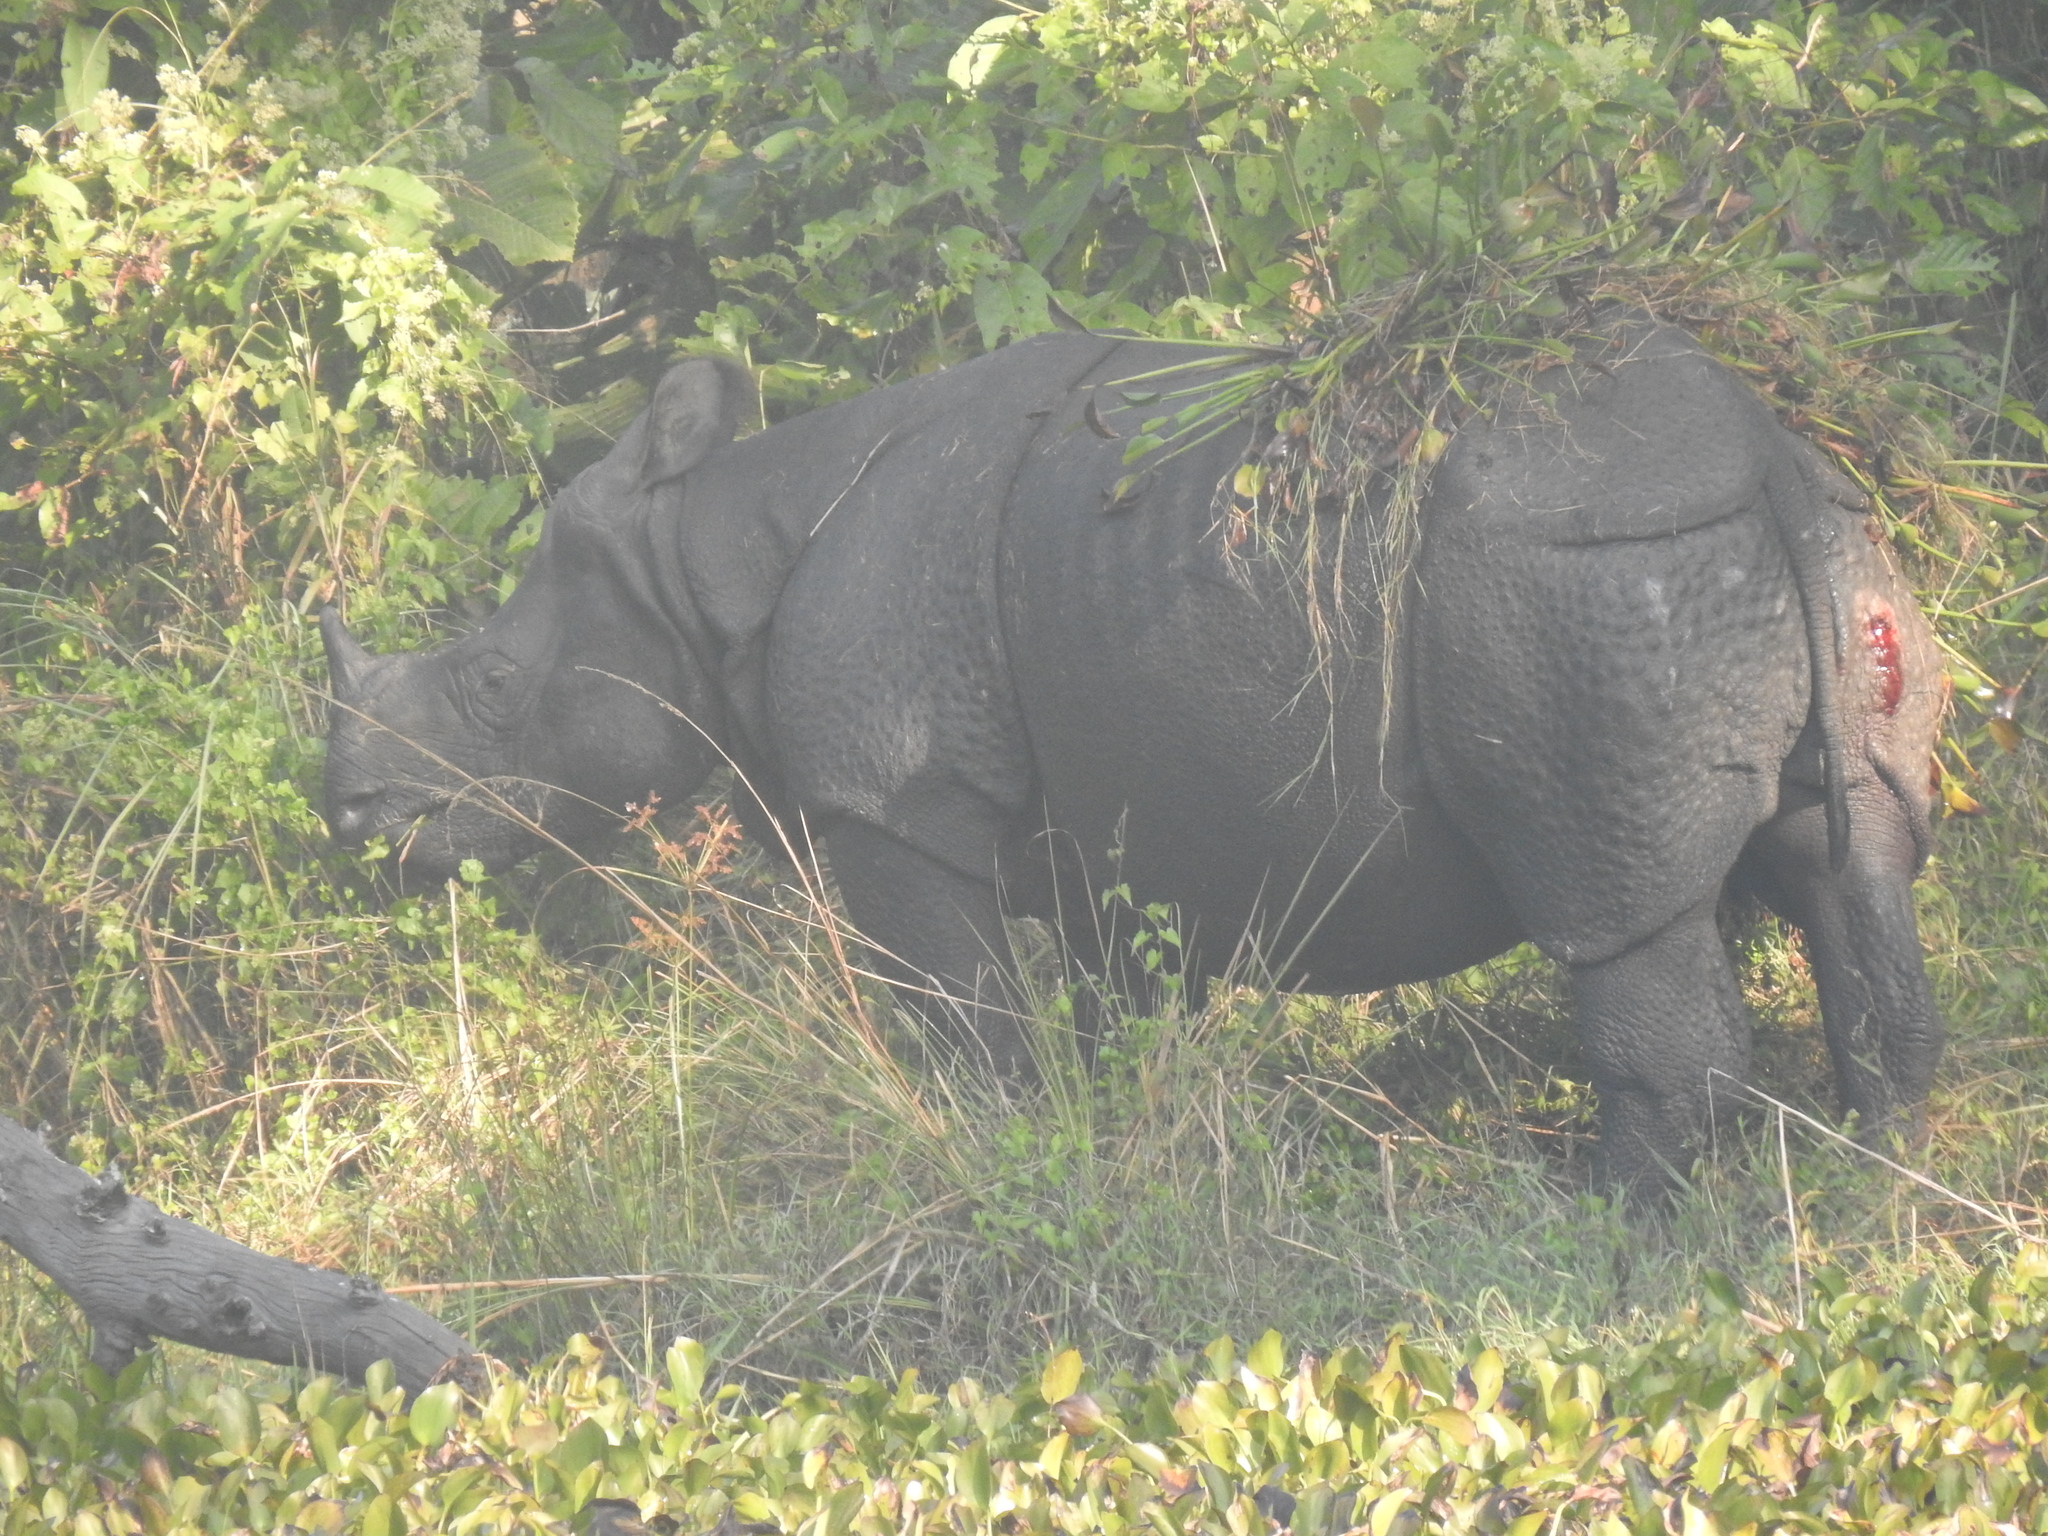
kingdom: Animalia
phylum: Chordata
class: Mammalia
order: Perissodactyla
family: Rhinocerotidae
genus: Rhinoceros
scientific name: Rhinoceros unicornis
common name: Indian rhinoceros
